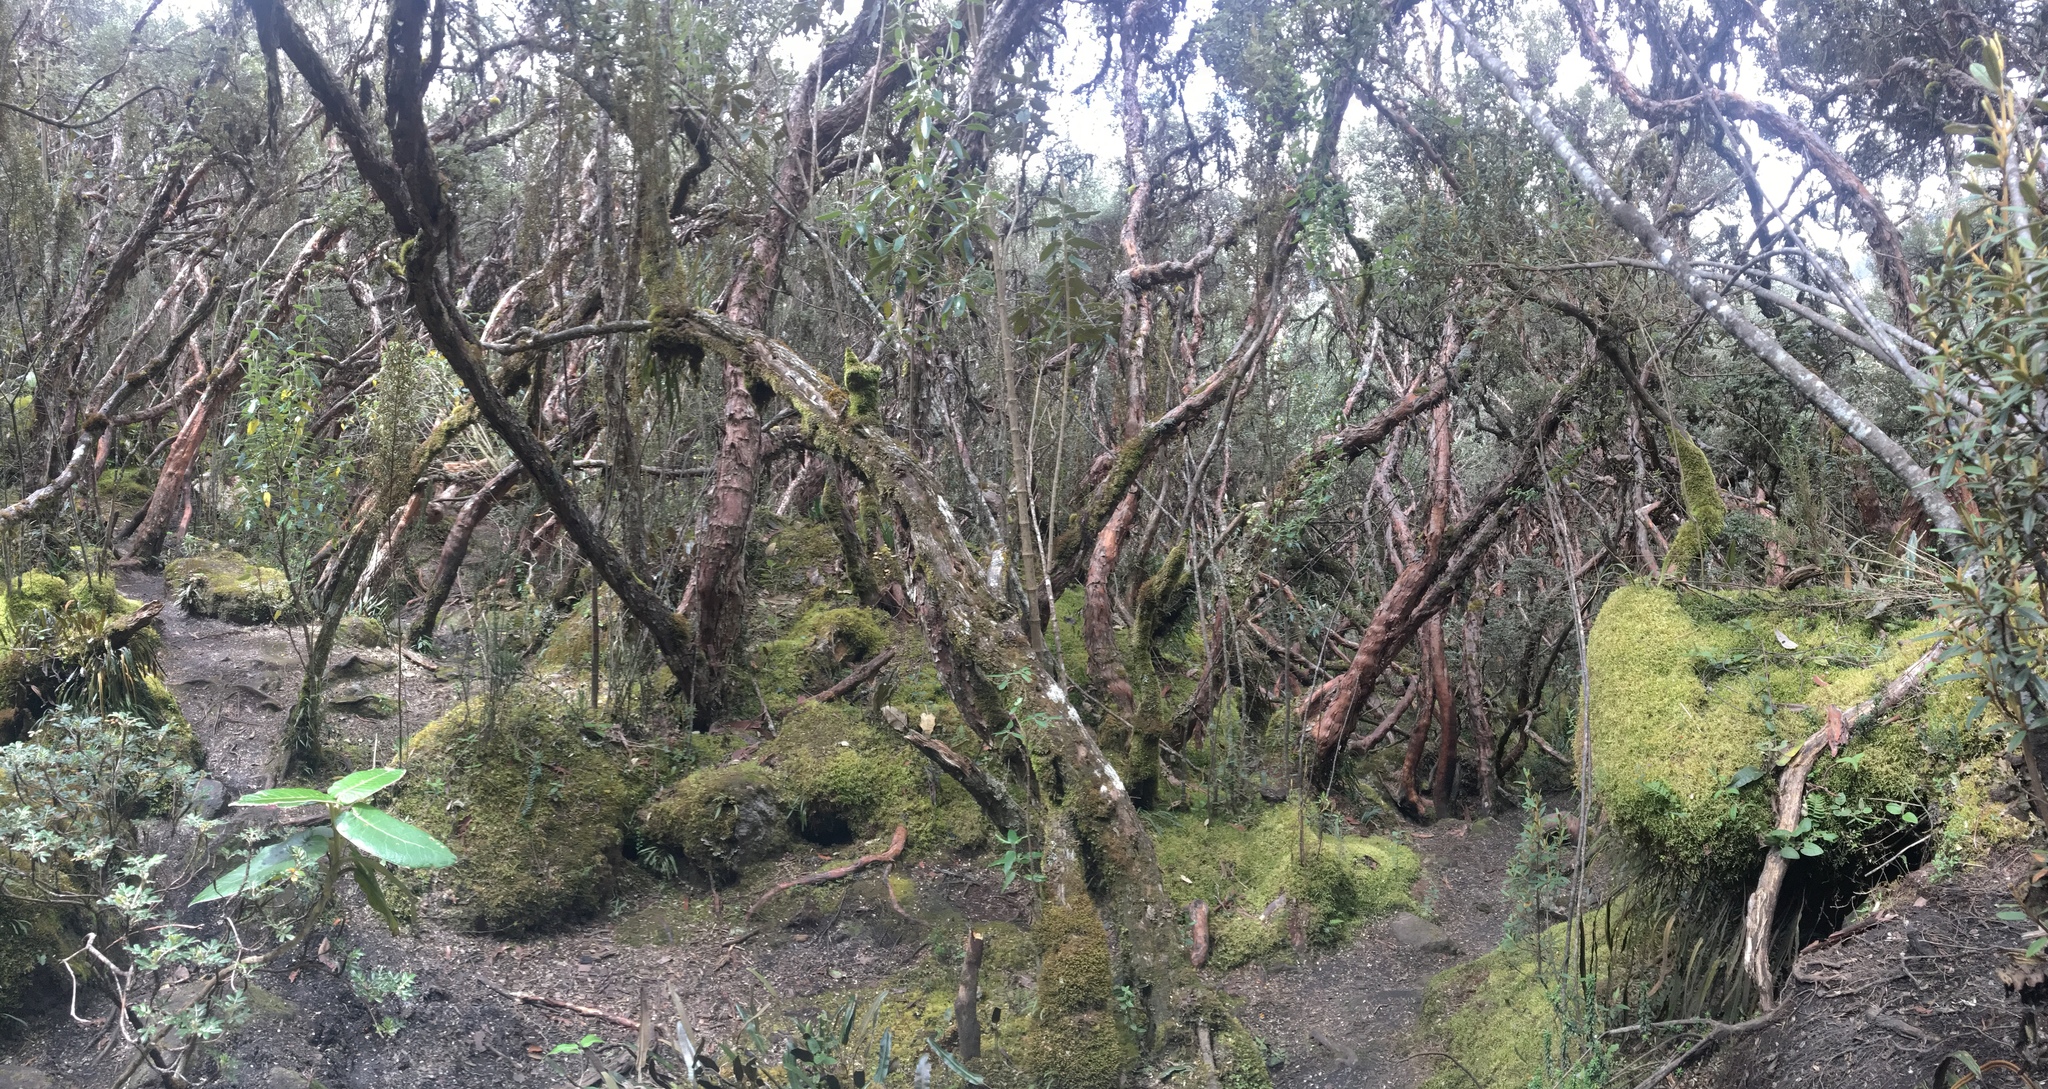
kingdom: Plantae
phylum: Tracheophyta
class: Magnoliopsida
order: Rosales
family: Rosaceae
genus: Polylepis
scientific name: Polylepis reticulata
